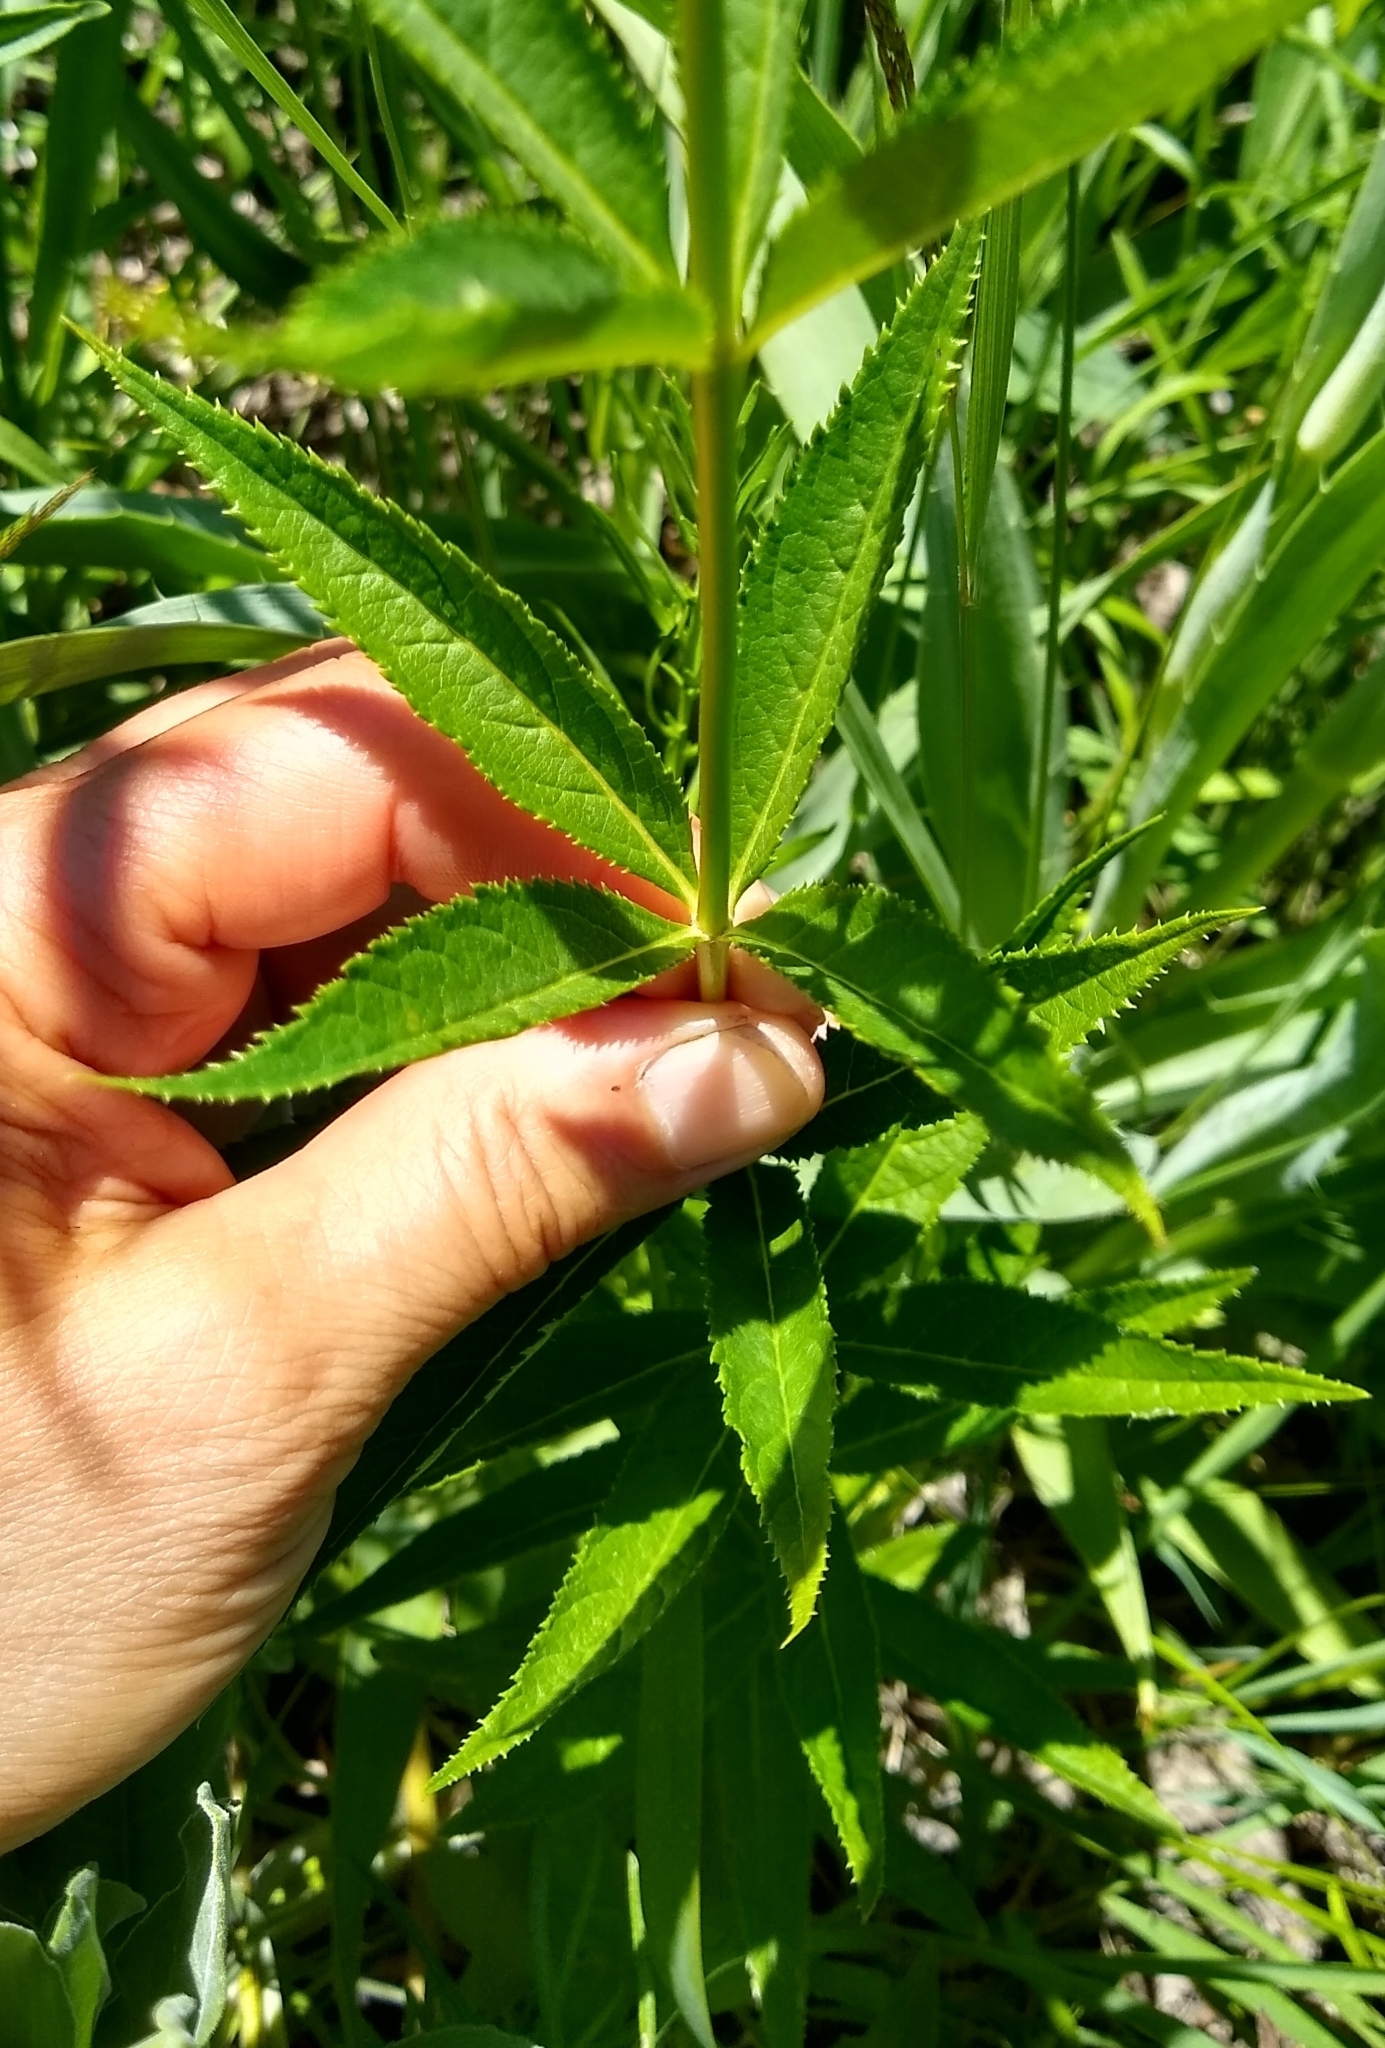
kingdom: Plantae
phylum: Tracheophyta
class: Magnoliopsida
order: Lamiales
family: Plantaginaceae
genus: Veronicastrum
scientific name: Veronicastrum virginicum
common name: Blackroot
